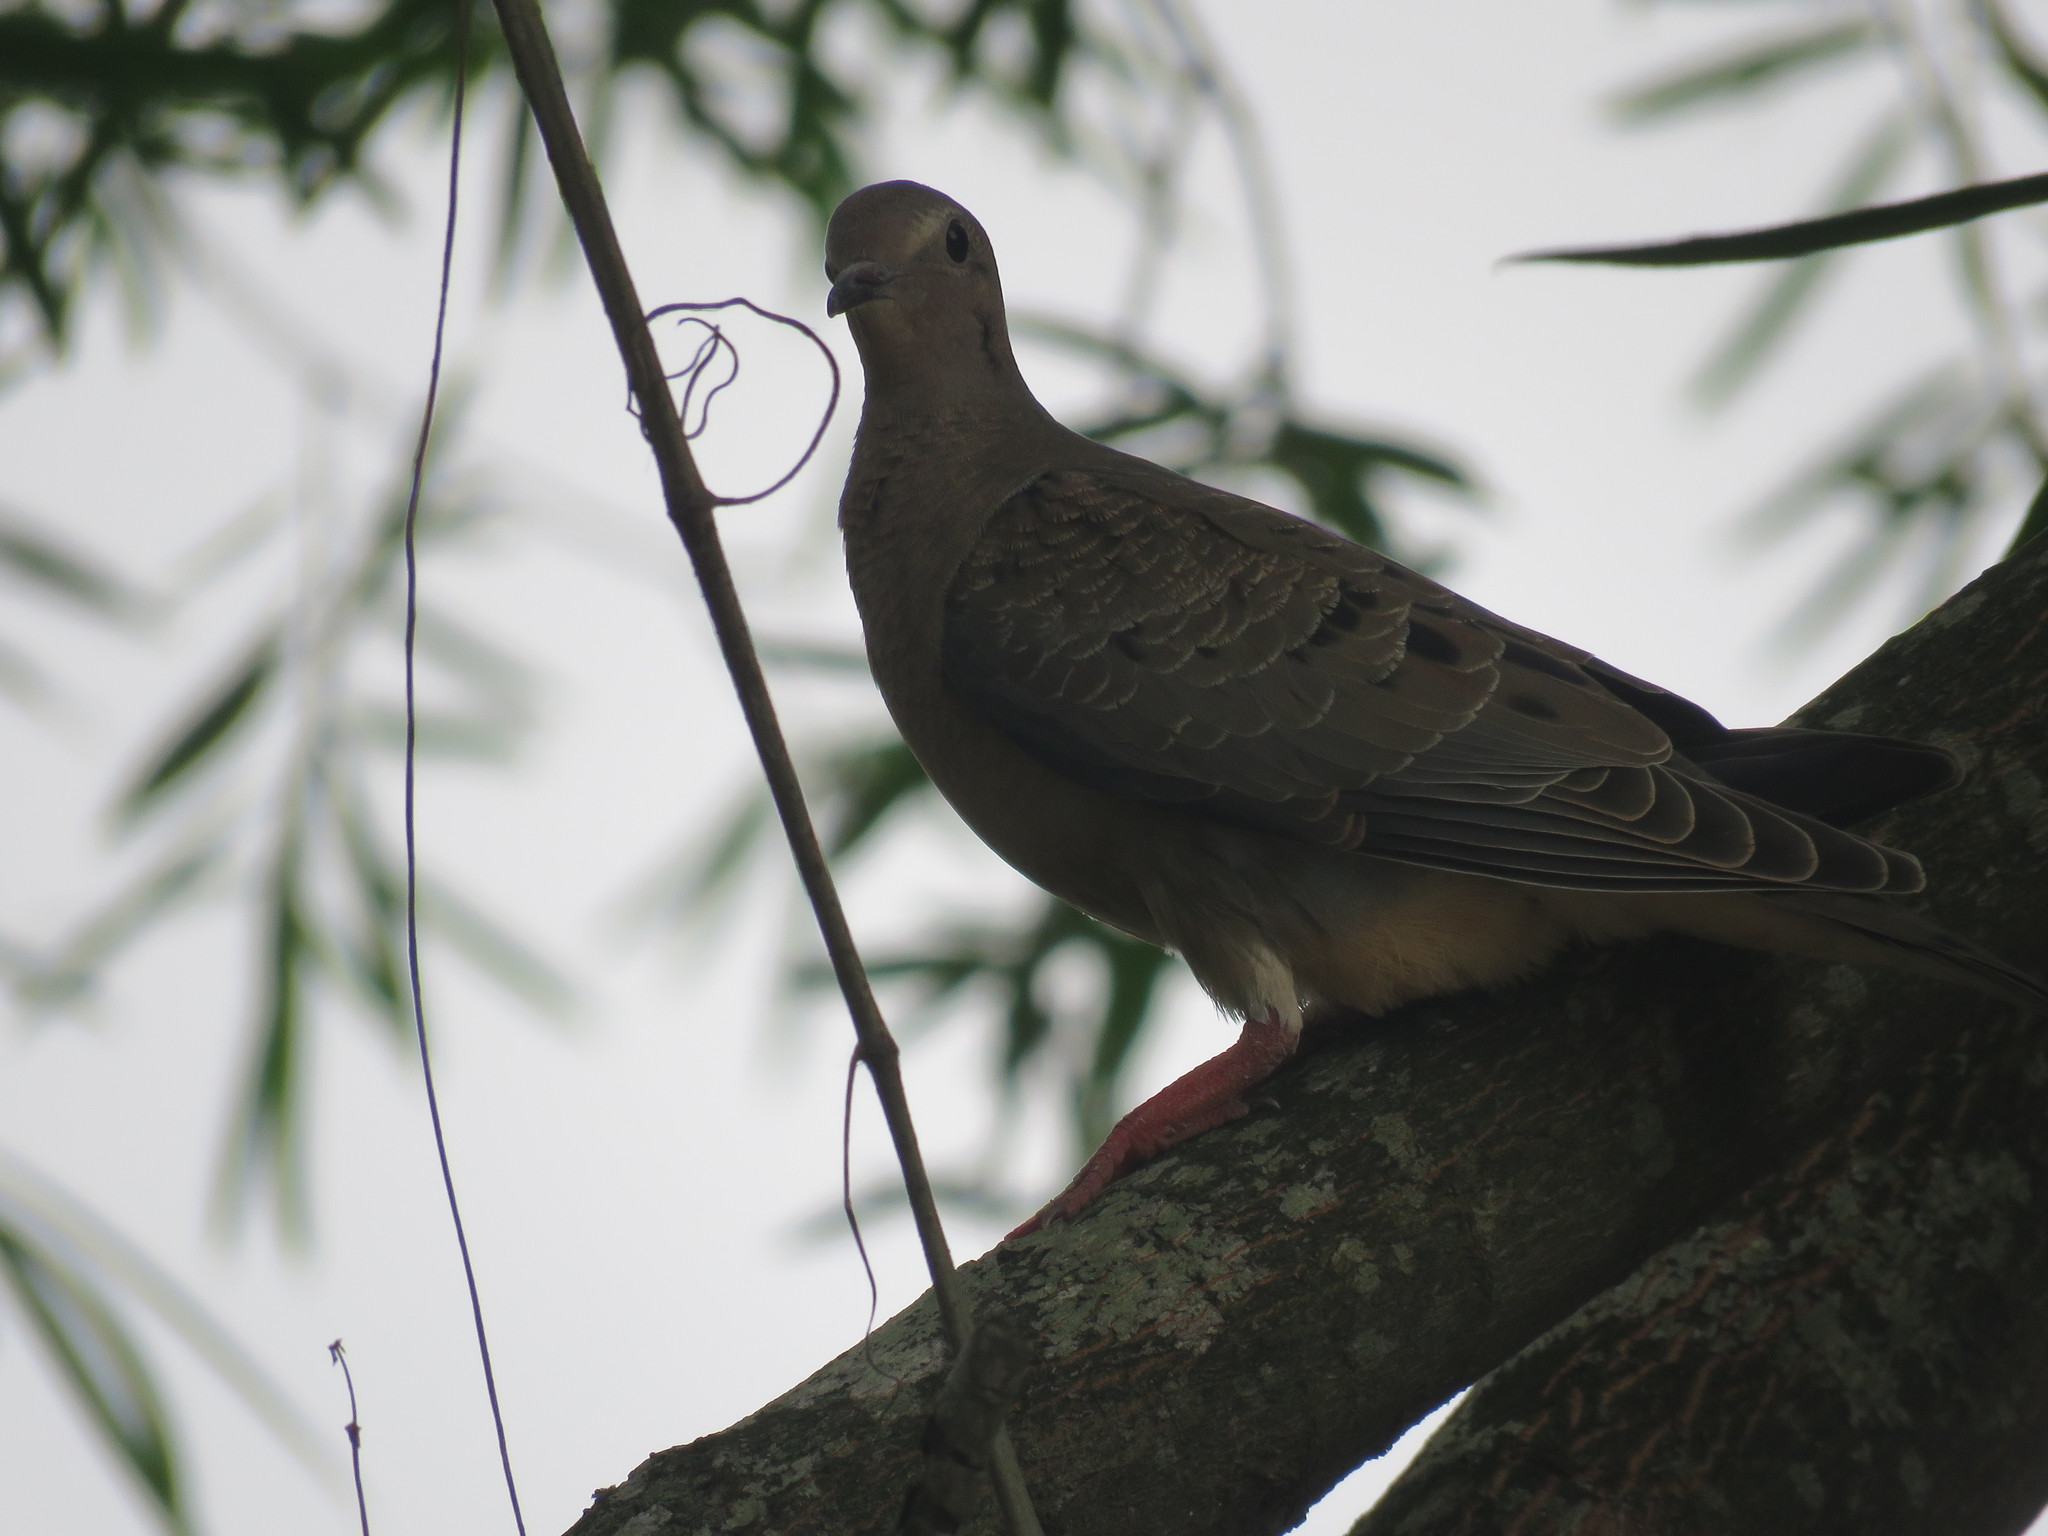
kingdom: Animalia
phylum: Chordata
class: Aves
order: Columbiformes
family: Columbidae
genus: Zenaida
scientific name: Zenaida auriculata
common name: Eared dove
